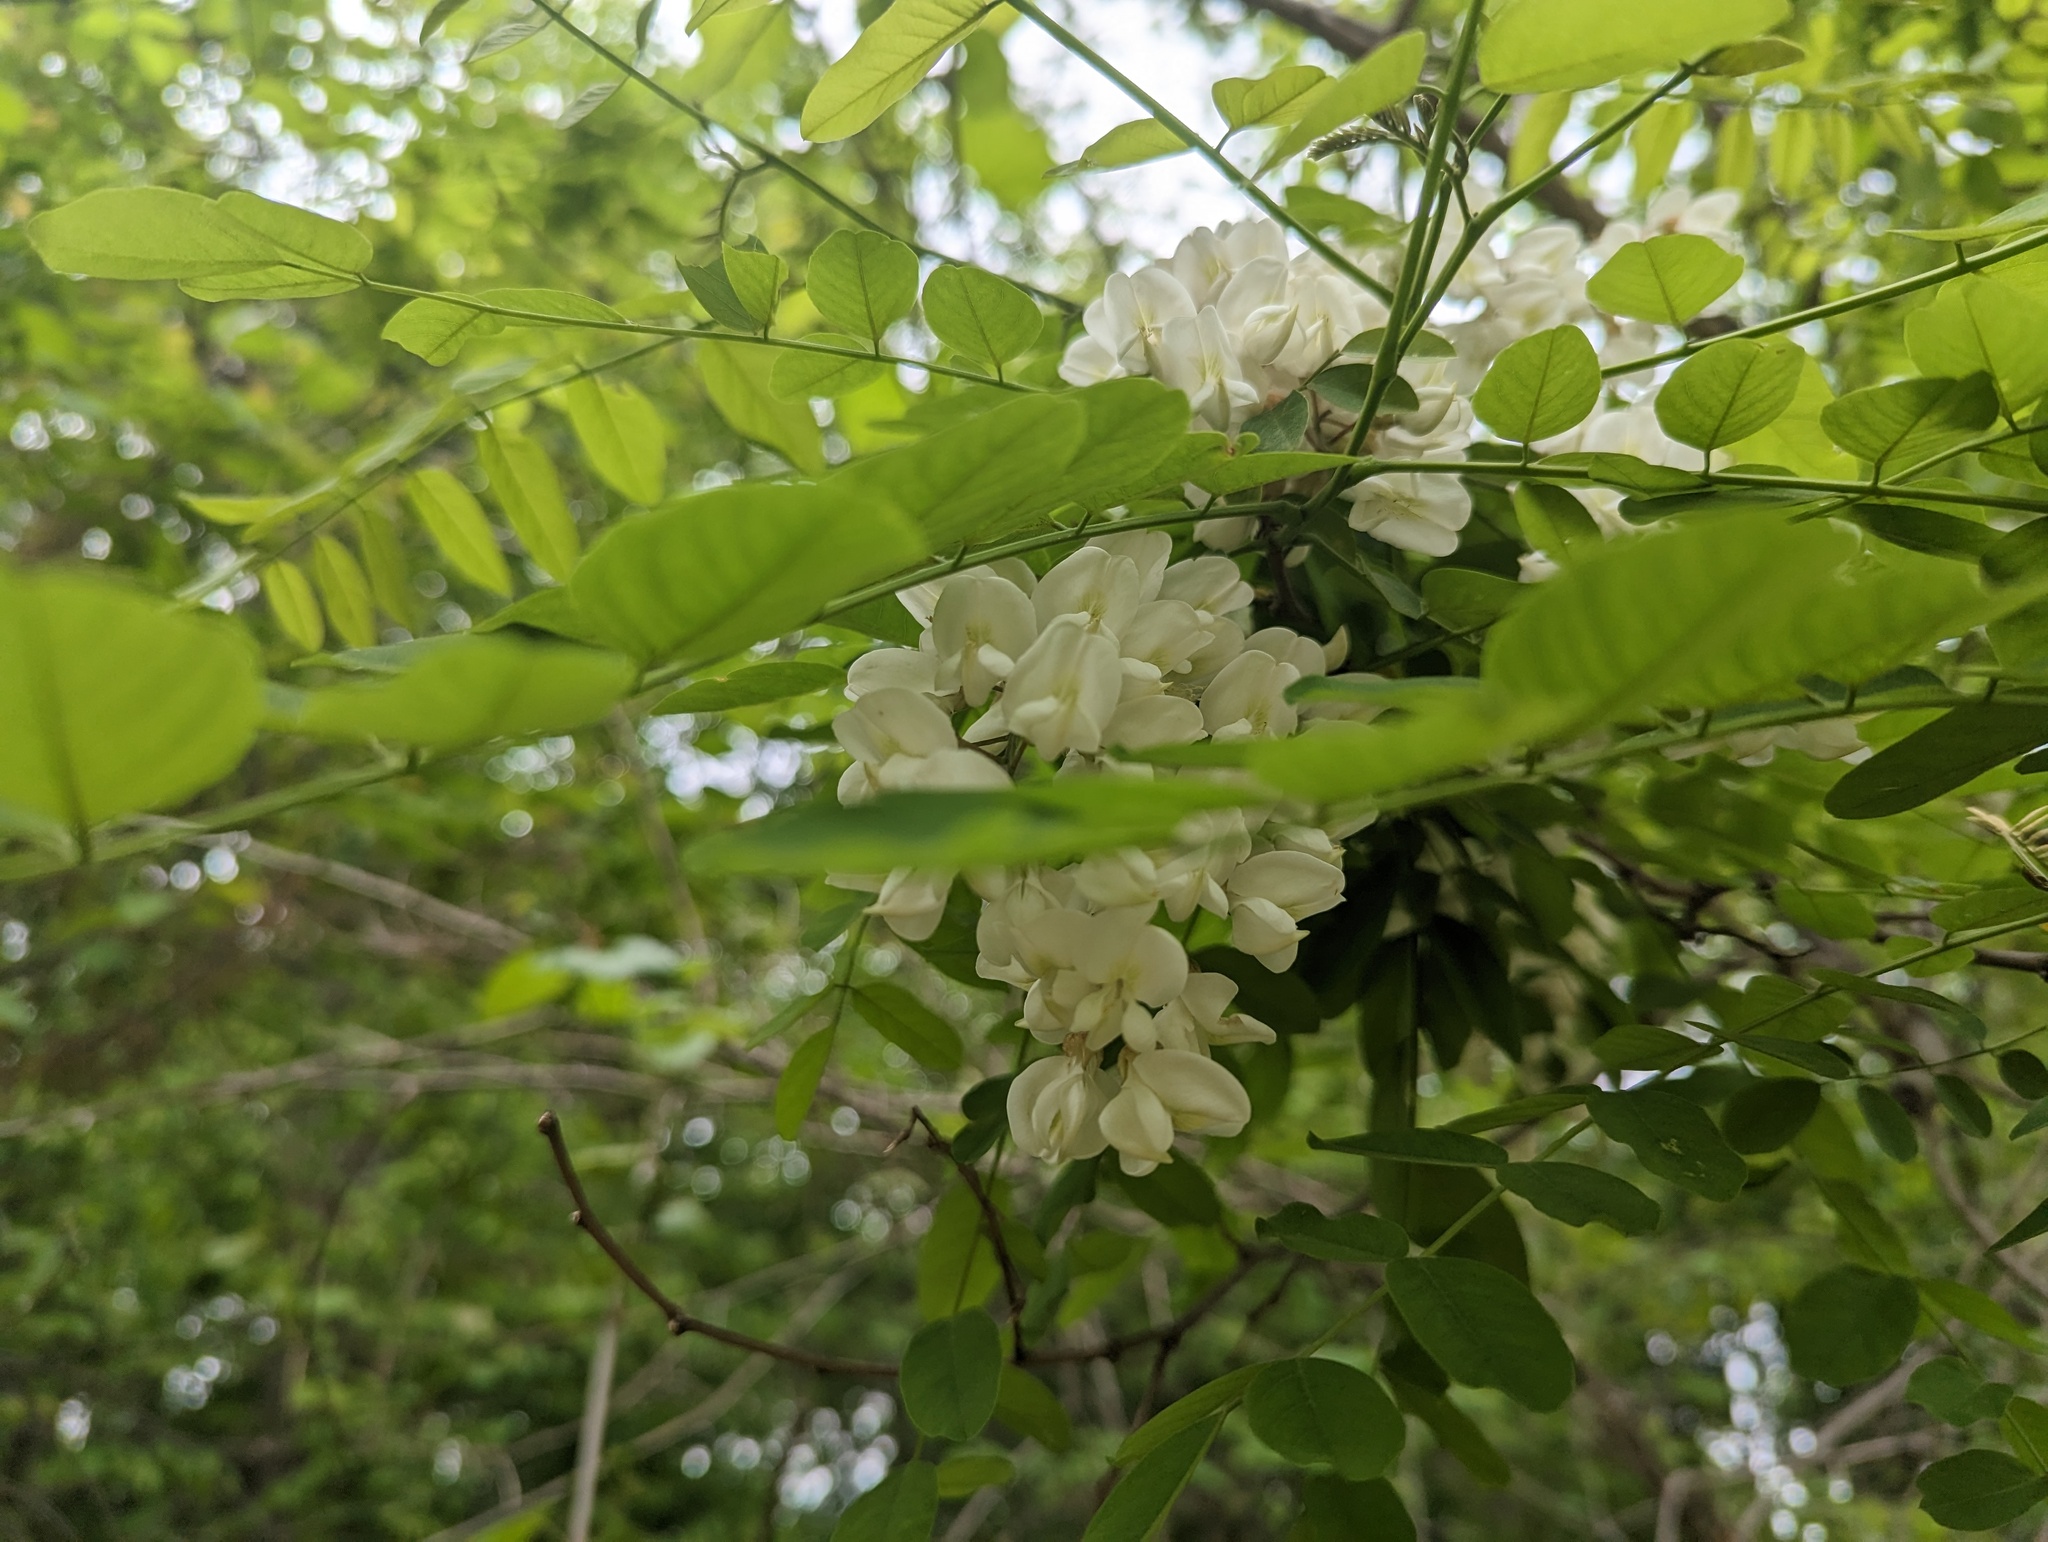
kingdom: Plantae
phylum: Tracheophyta
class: Magnoliopsida
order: Fabales
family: Fabaceae
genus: Robinia
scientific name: Robinia pseudoacacia
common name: Black locust
